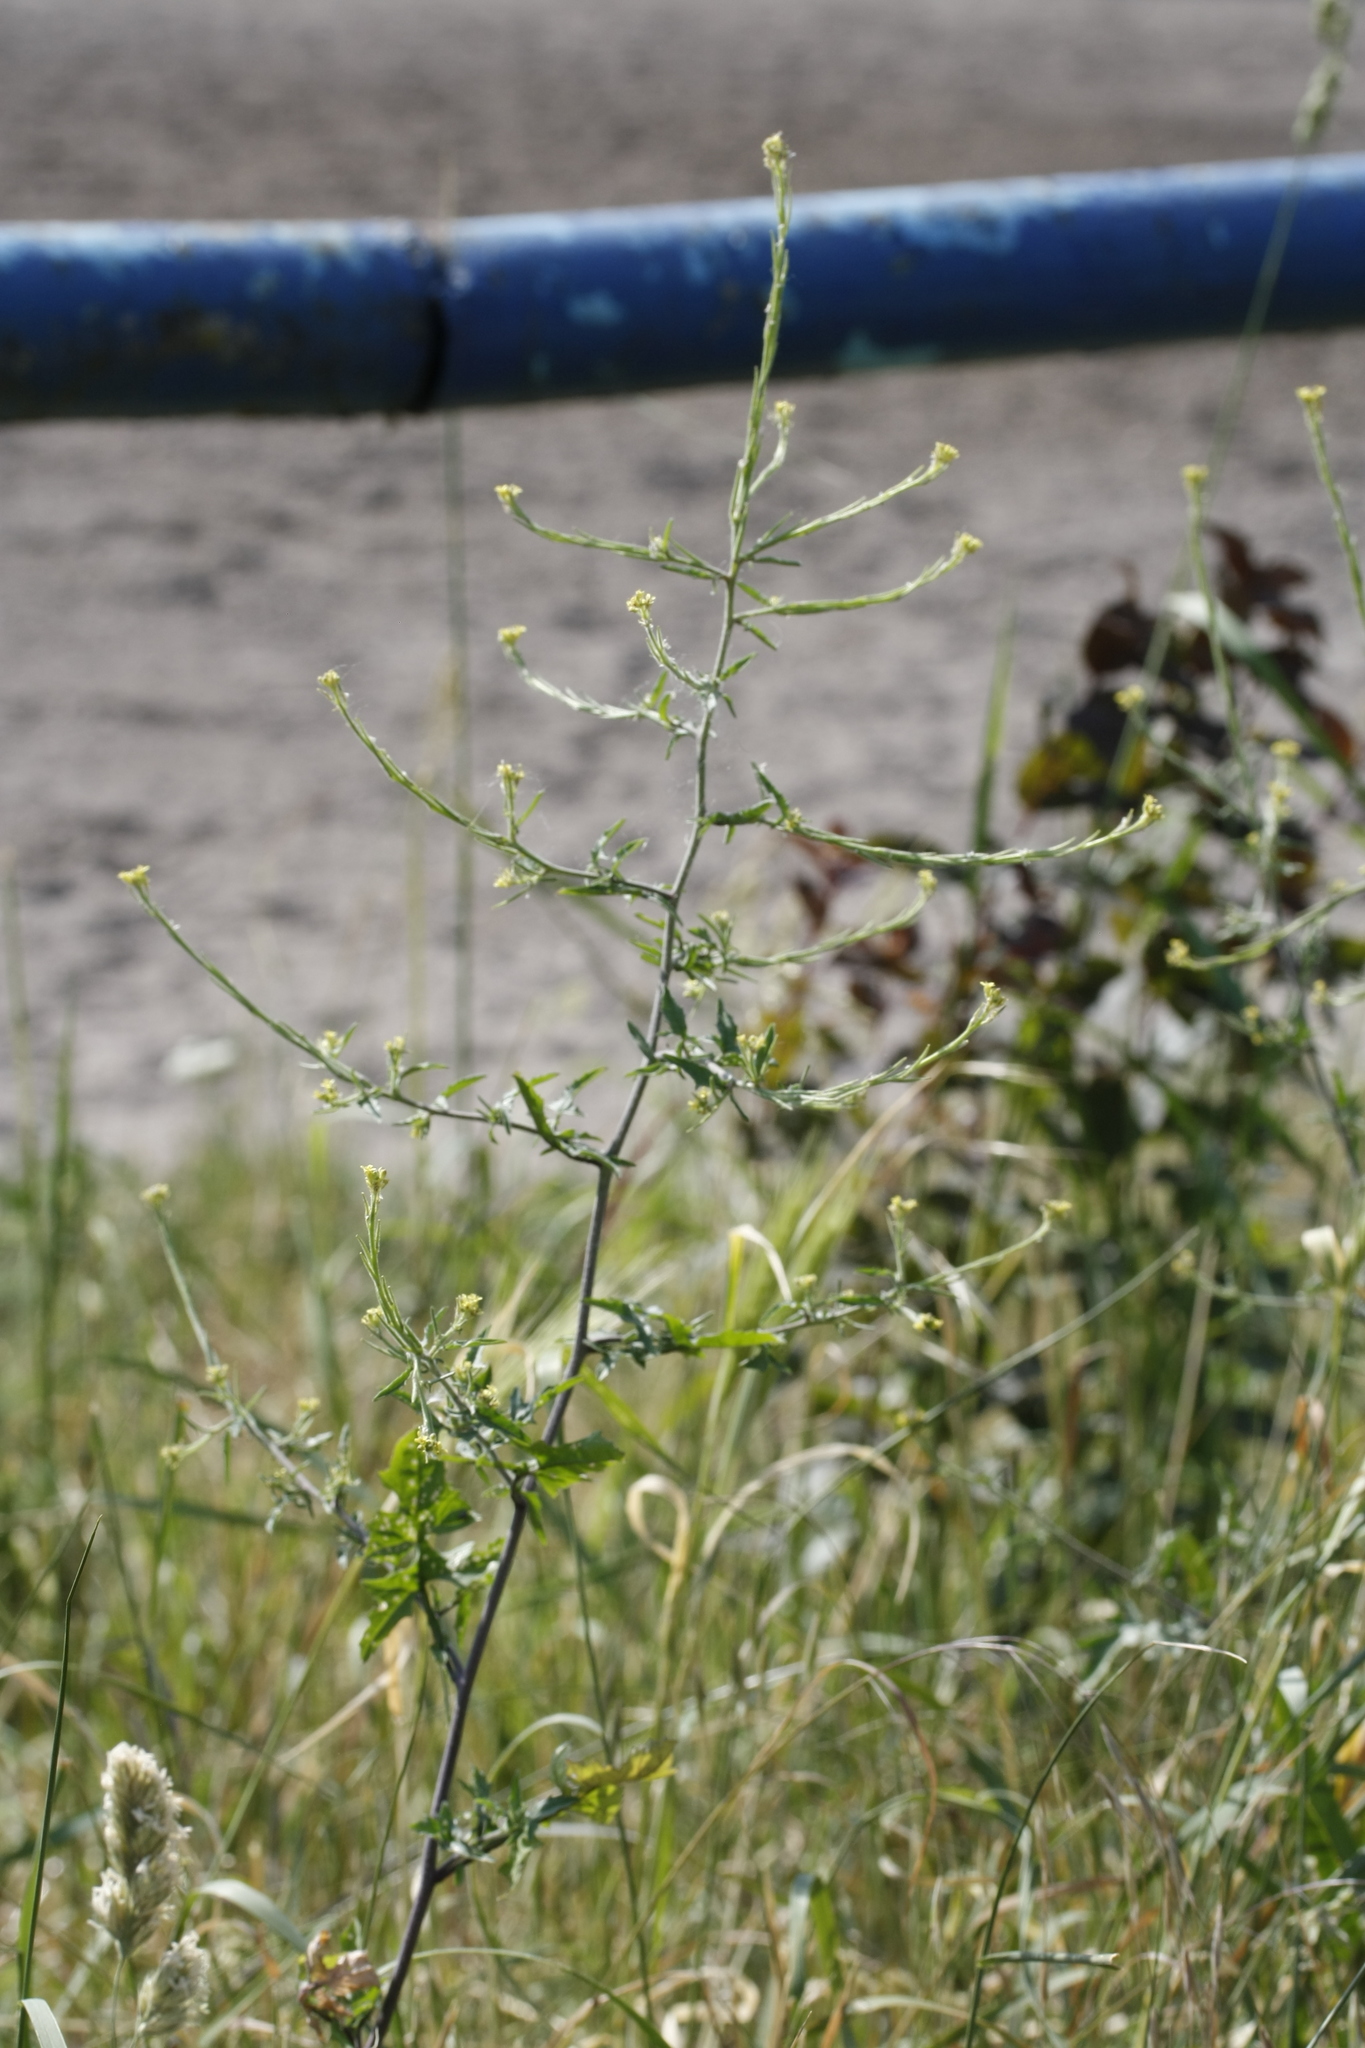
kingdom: Plantae
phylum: Tracheophyta
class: Magnoliopsida
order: Brassicales
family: Brassicaceae
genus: Sisymbrium
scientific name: Sisymbrium officinale
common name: Hedge mustard
